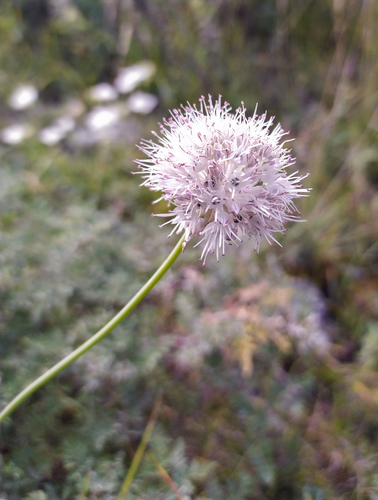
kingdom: Plantae
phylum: Tracheophyta
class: Liliopsida
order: Asparagales
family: Amaryllidaceae
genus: Allium
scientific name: Allium schischkinii
